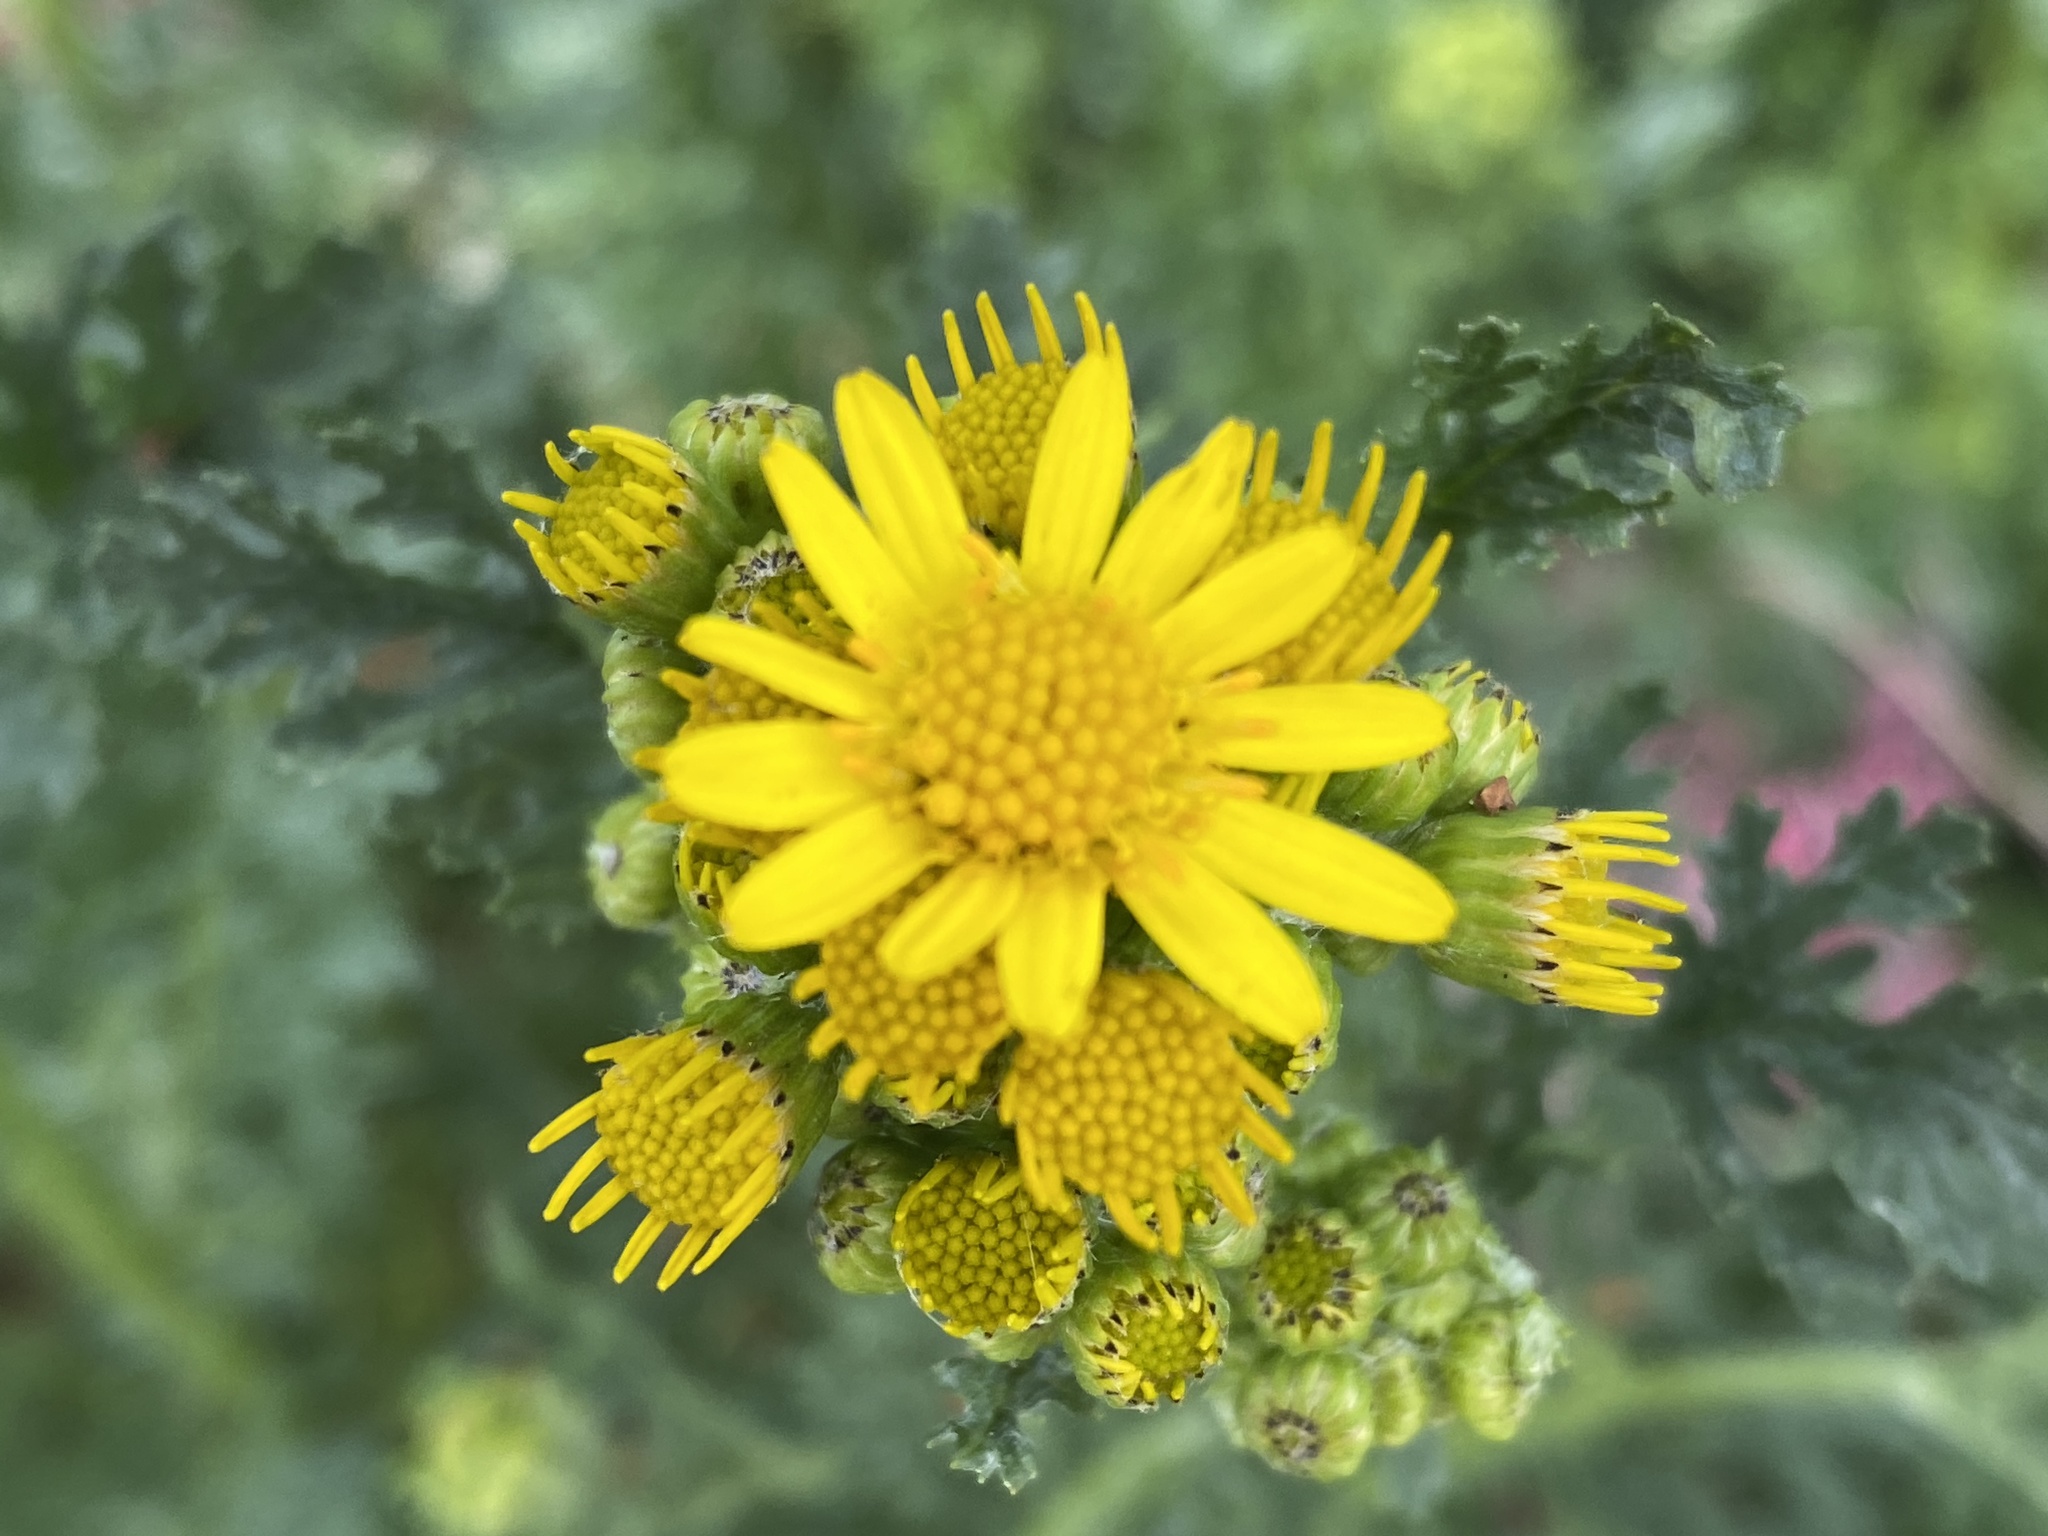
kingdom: Plantae
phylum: Tracheophyta
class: Magnoliopsida
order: Asterales
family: Asteraceae
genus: Jacobaea
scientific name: Jacobaea vulgaris
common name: Stinking willie
